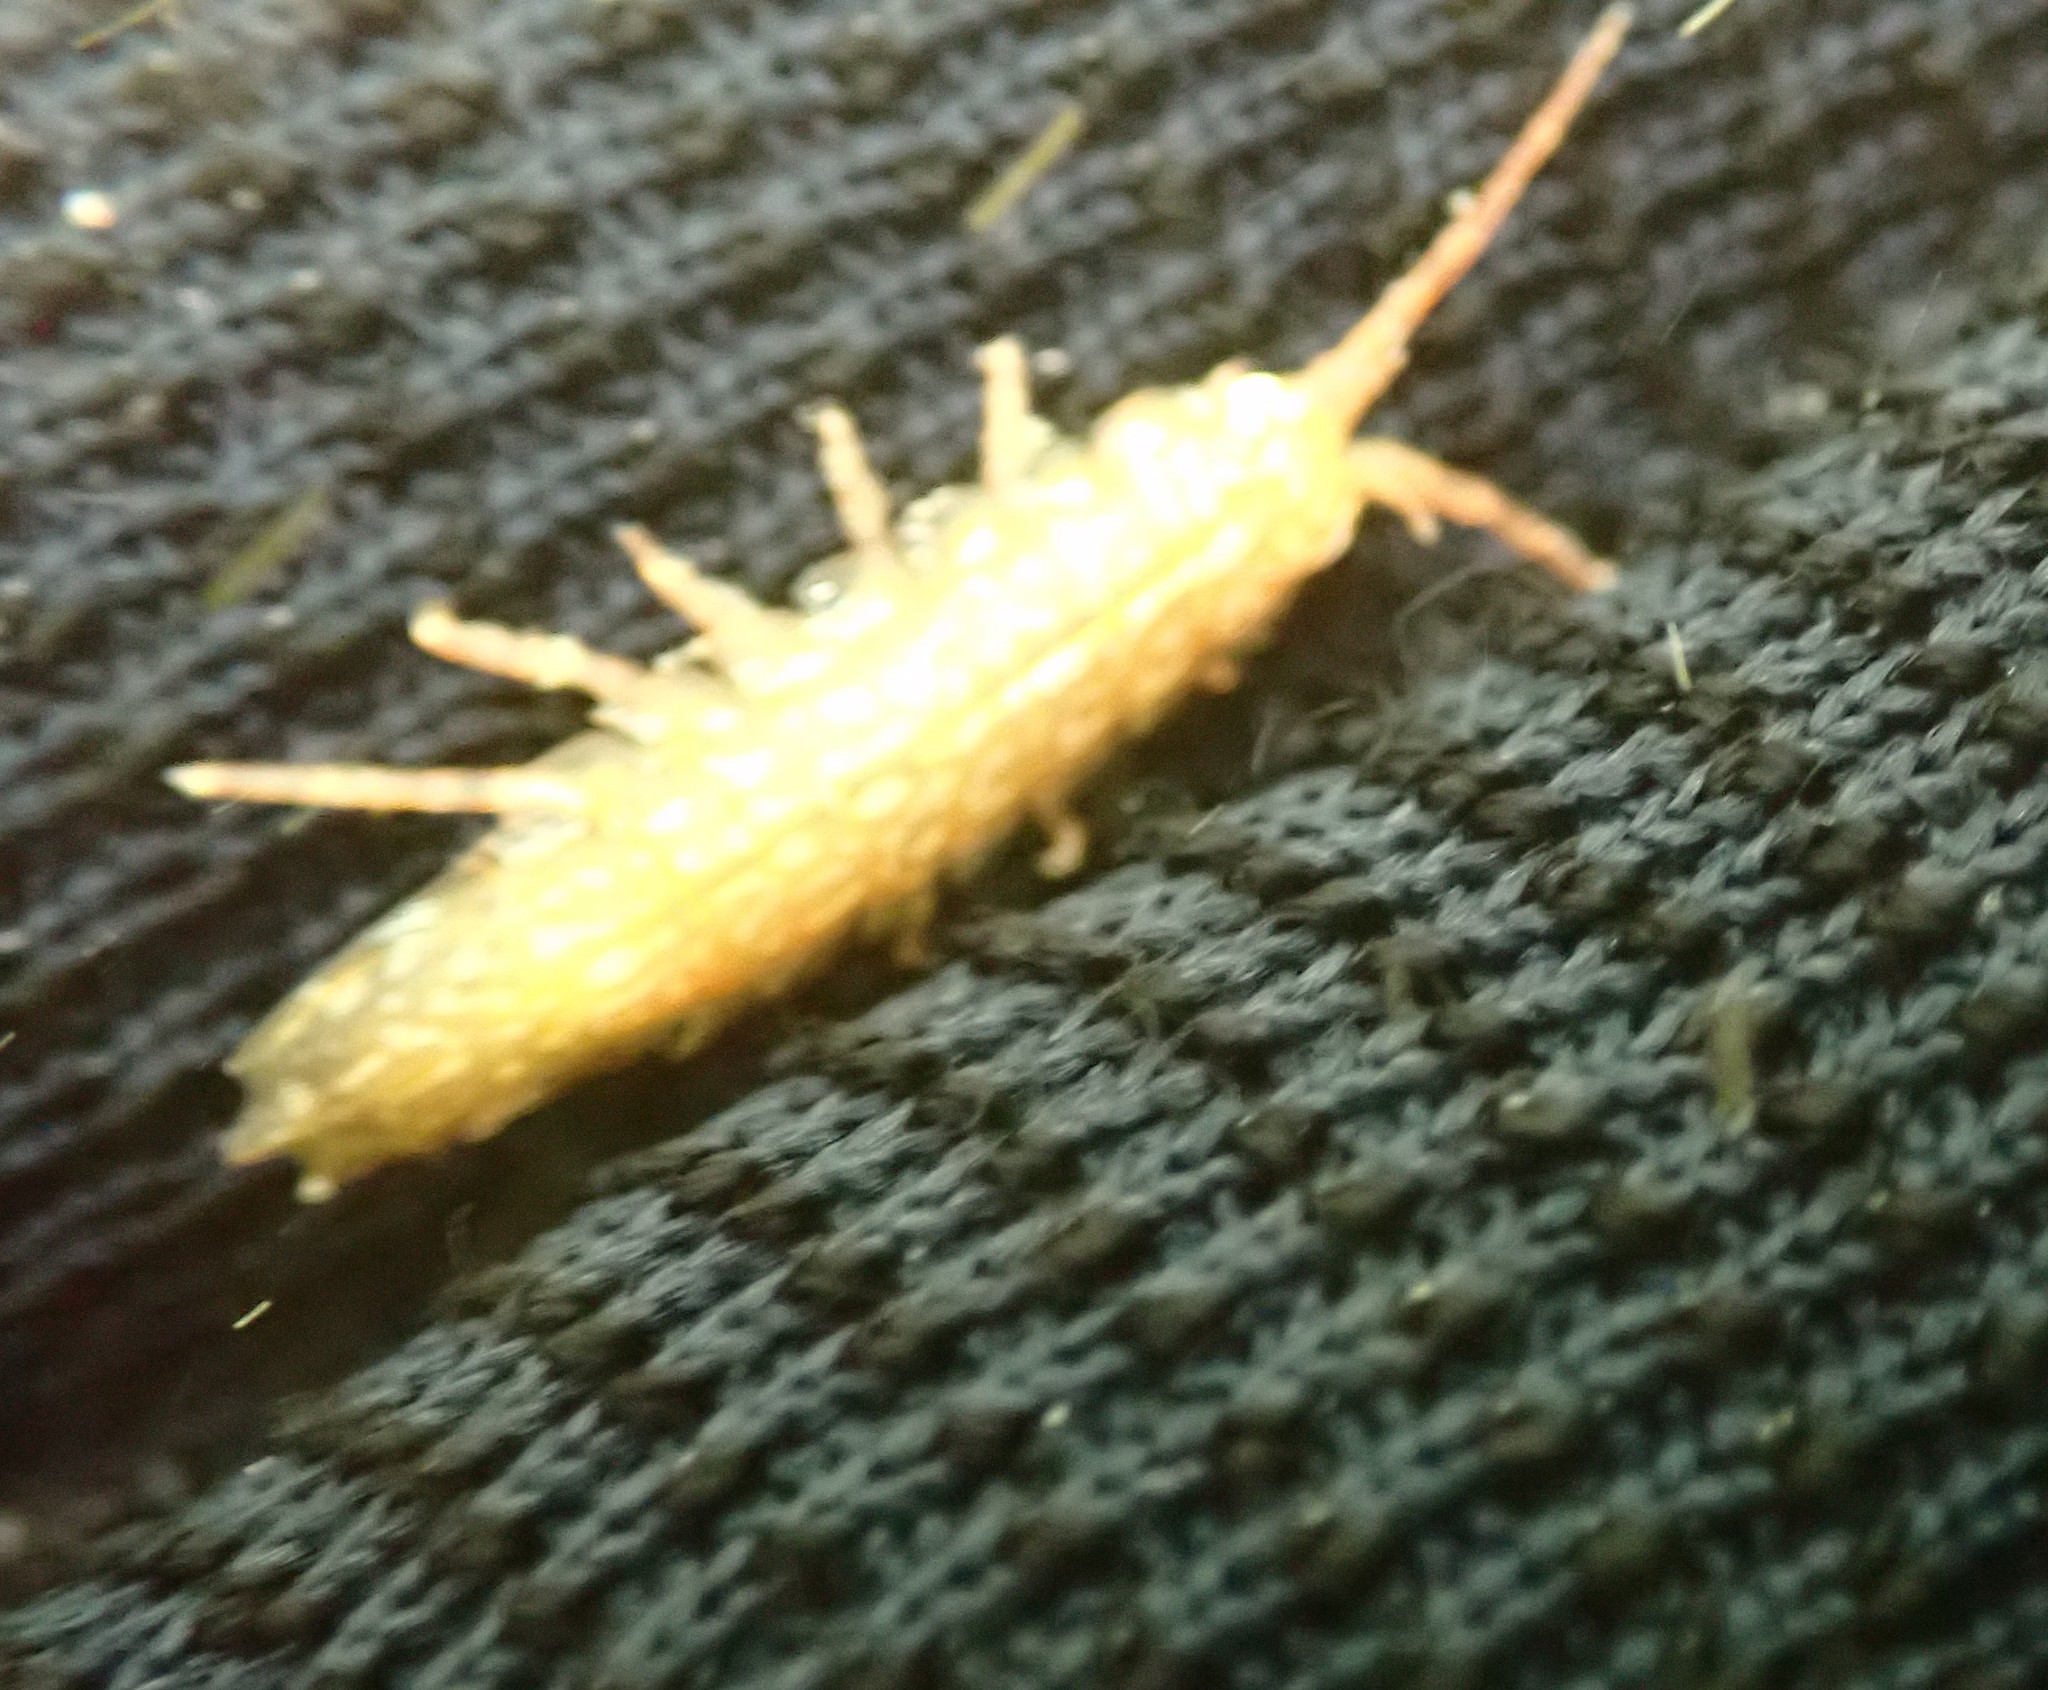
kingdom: Animalia
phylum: Arthropoda
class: Malacostraca
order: Isopoda
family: Idoteidae
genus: Idotea
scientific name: Idotea balthica
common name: Baltic isopod
